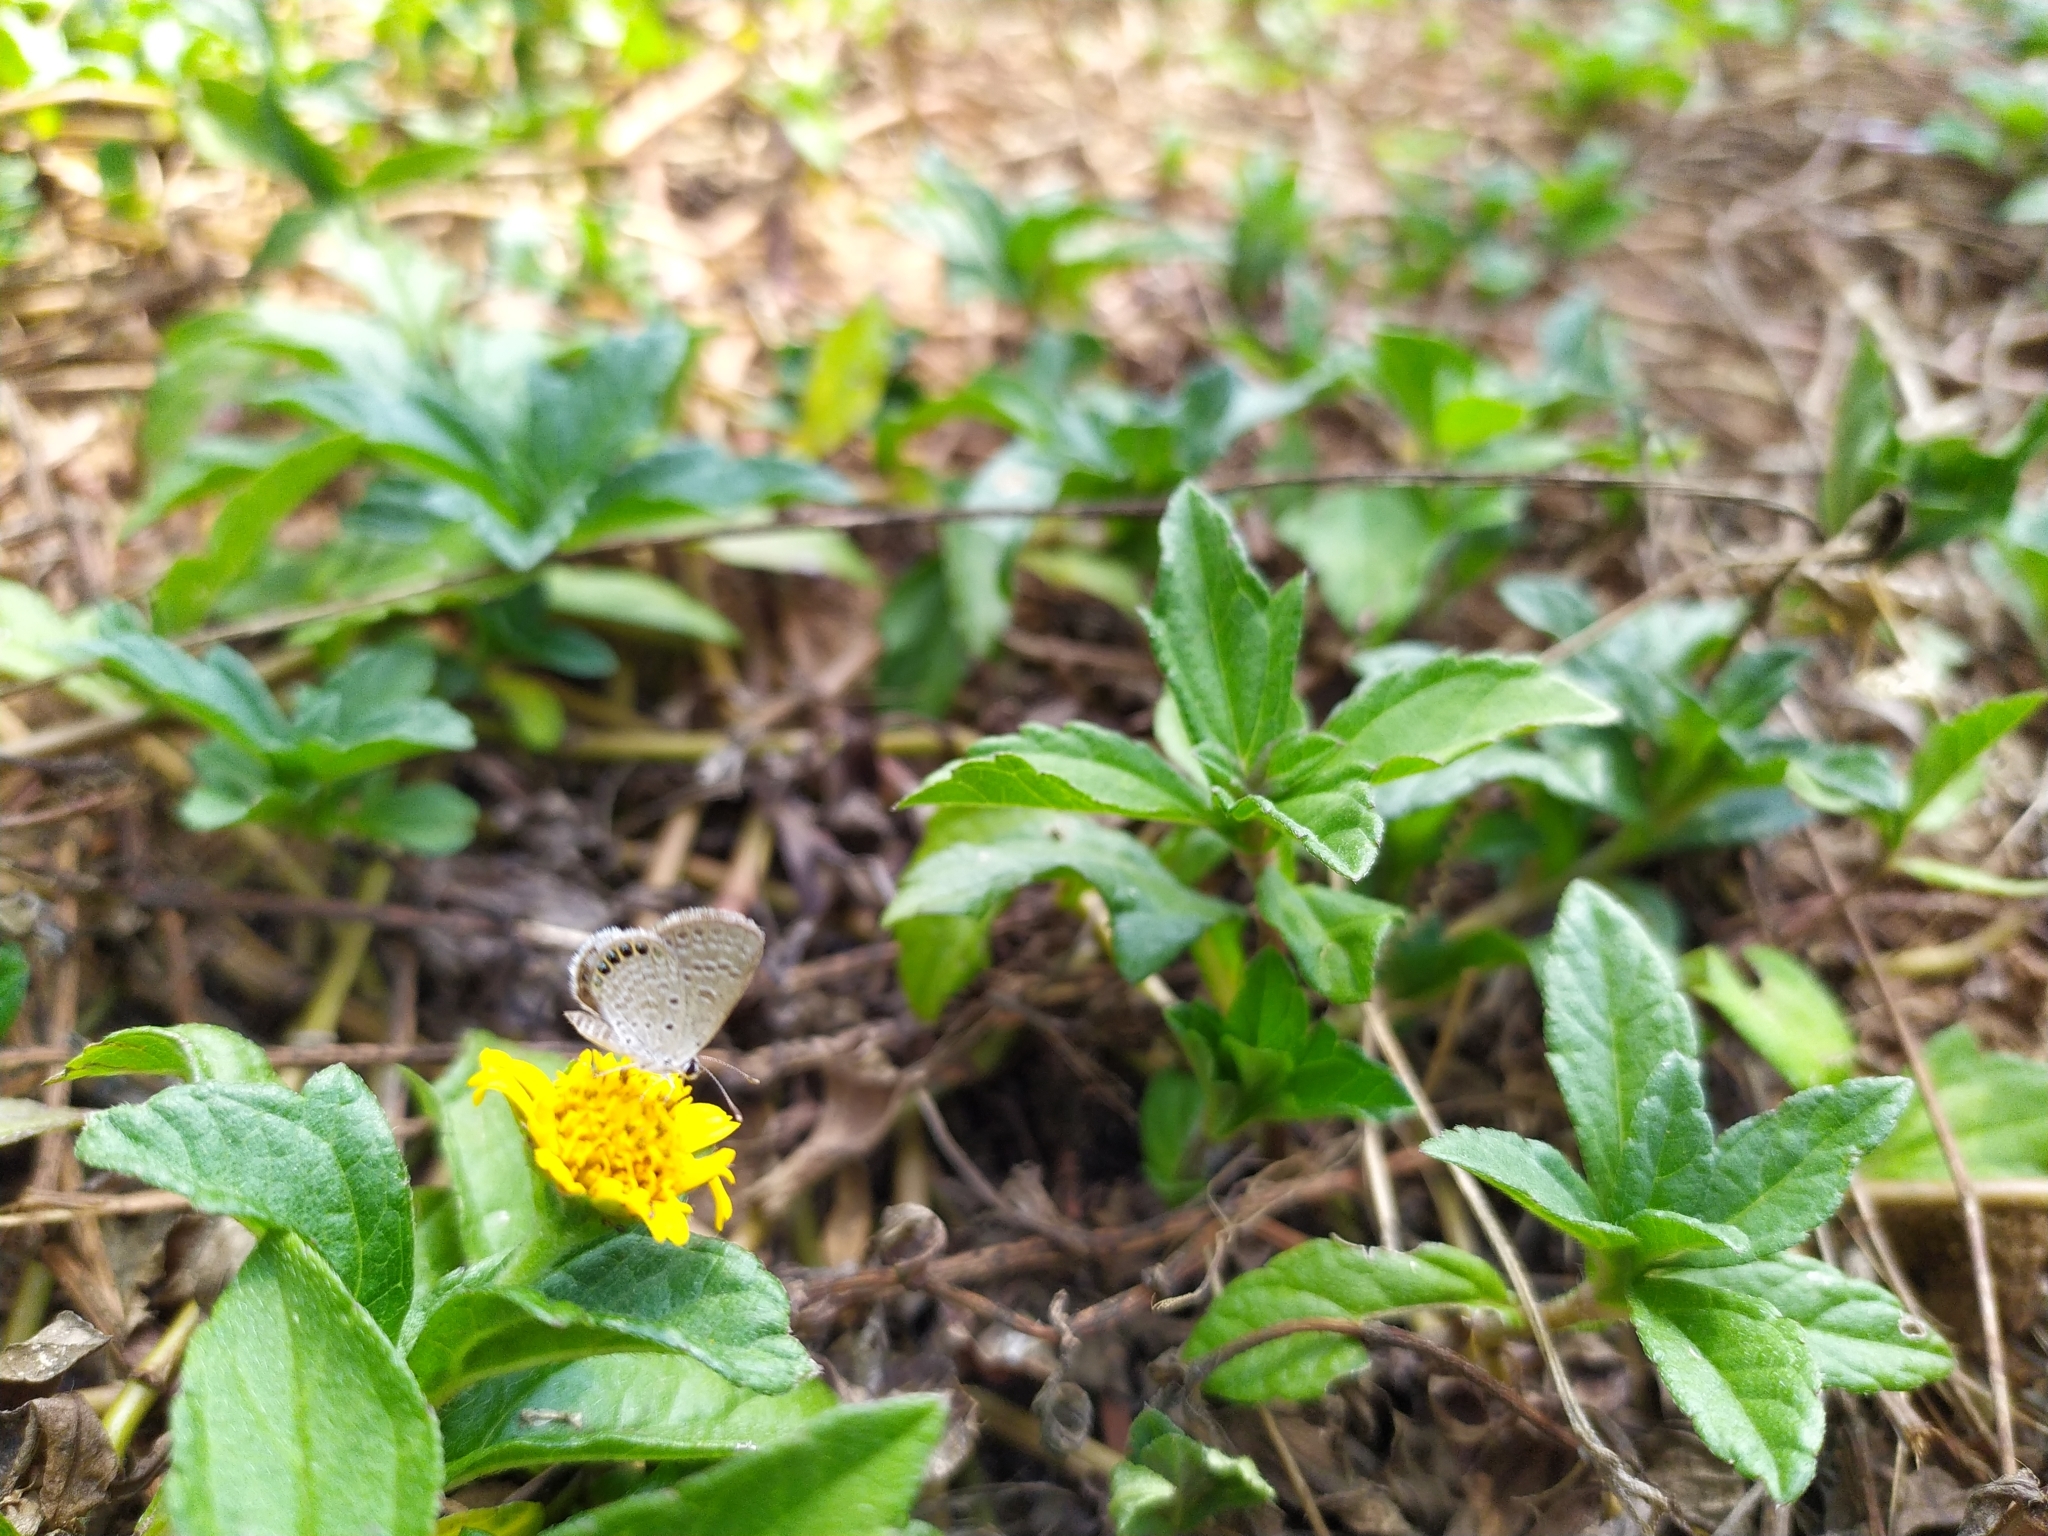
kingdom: Animalia
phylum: Arthropoda
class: Insecta
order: Lepidoptera
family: Lycaenidae
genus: Freyeria
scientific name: Freyeria putli
